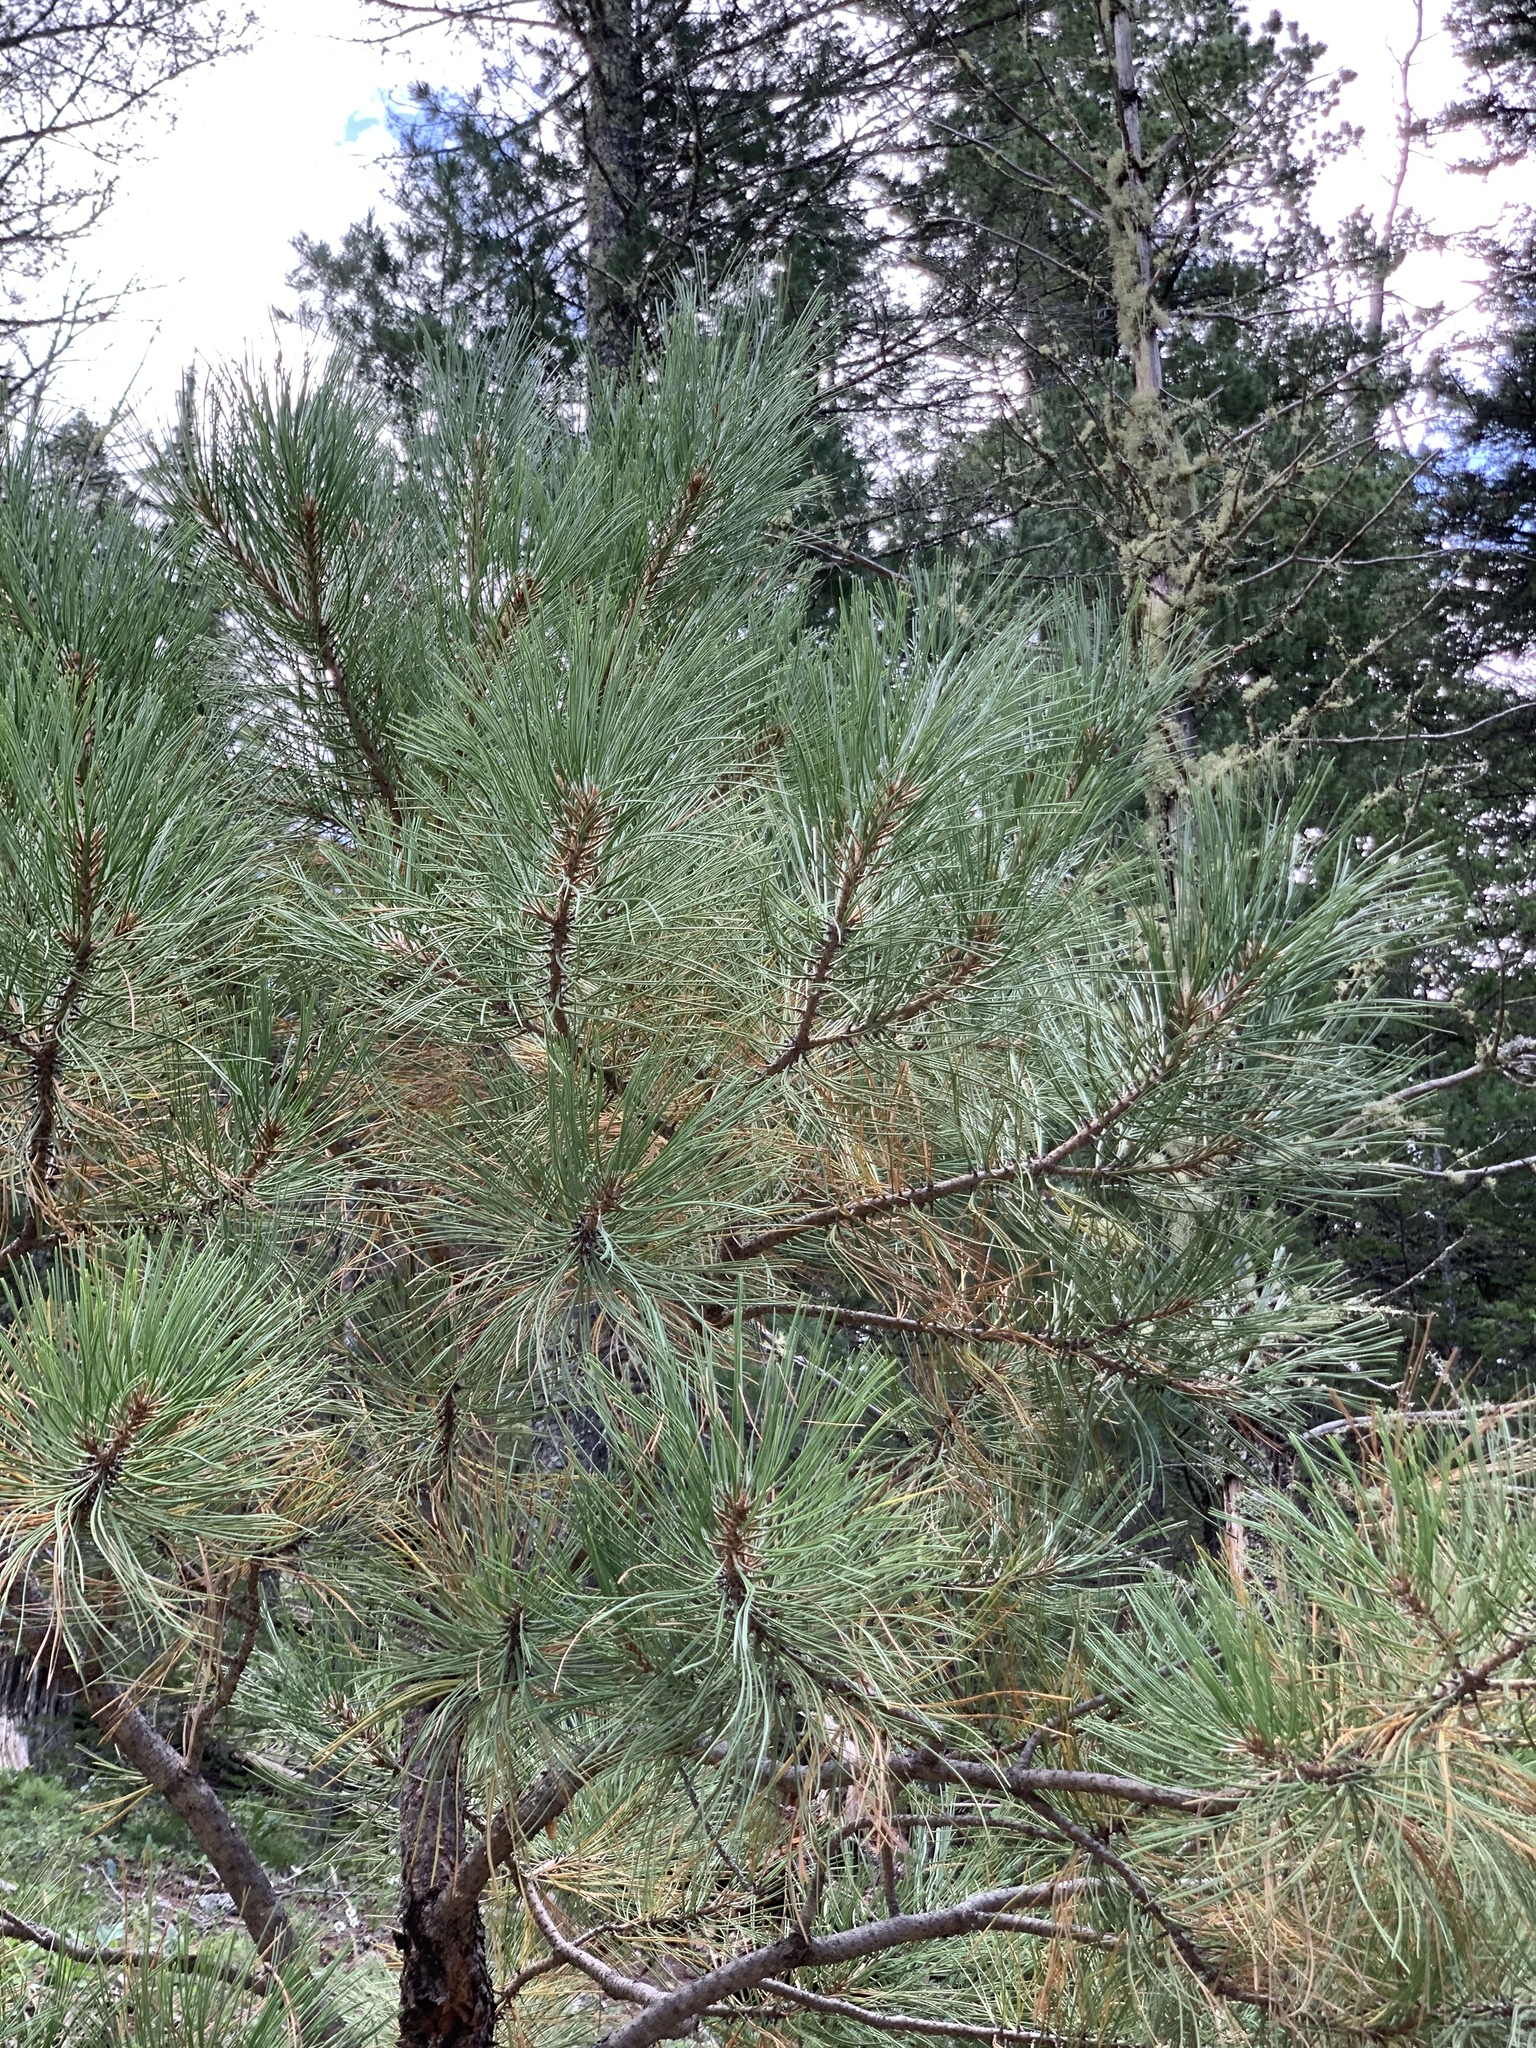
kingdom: Plantae
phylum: Tracheophyta
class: Pinopsida
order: Pinales
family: Pinaceae
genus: Pinus
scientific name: Pinus ponderosa
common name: Western yellow-pine
